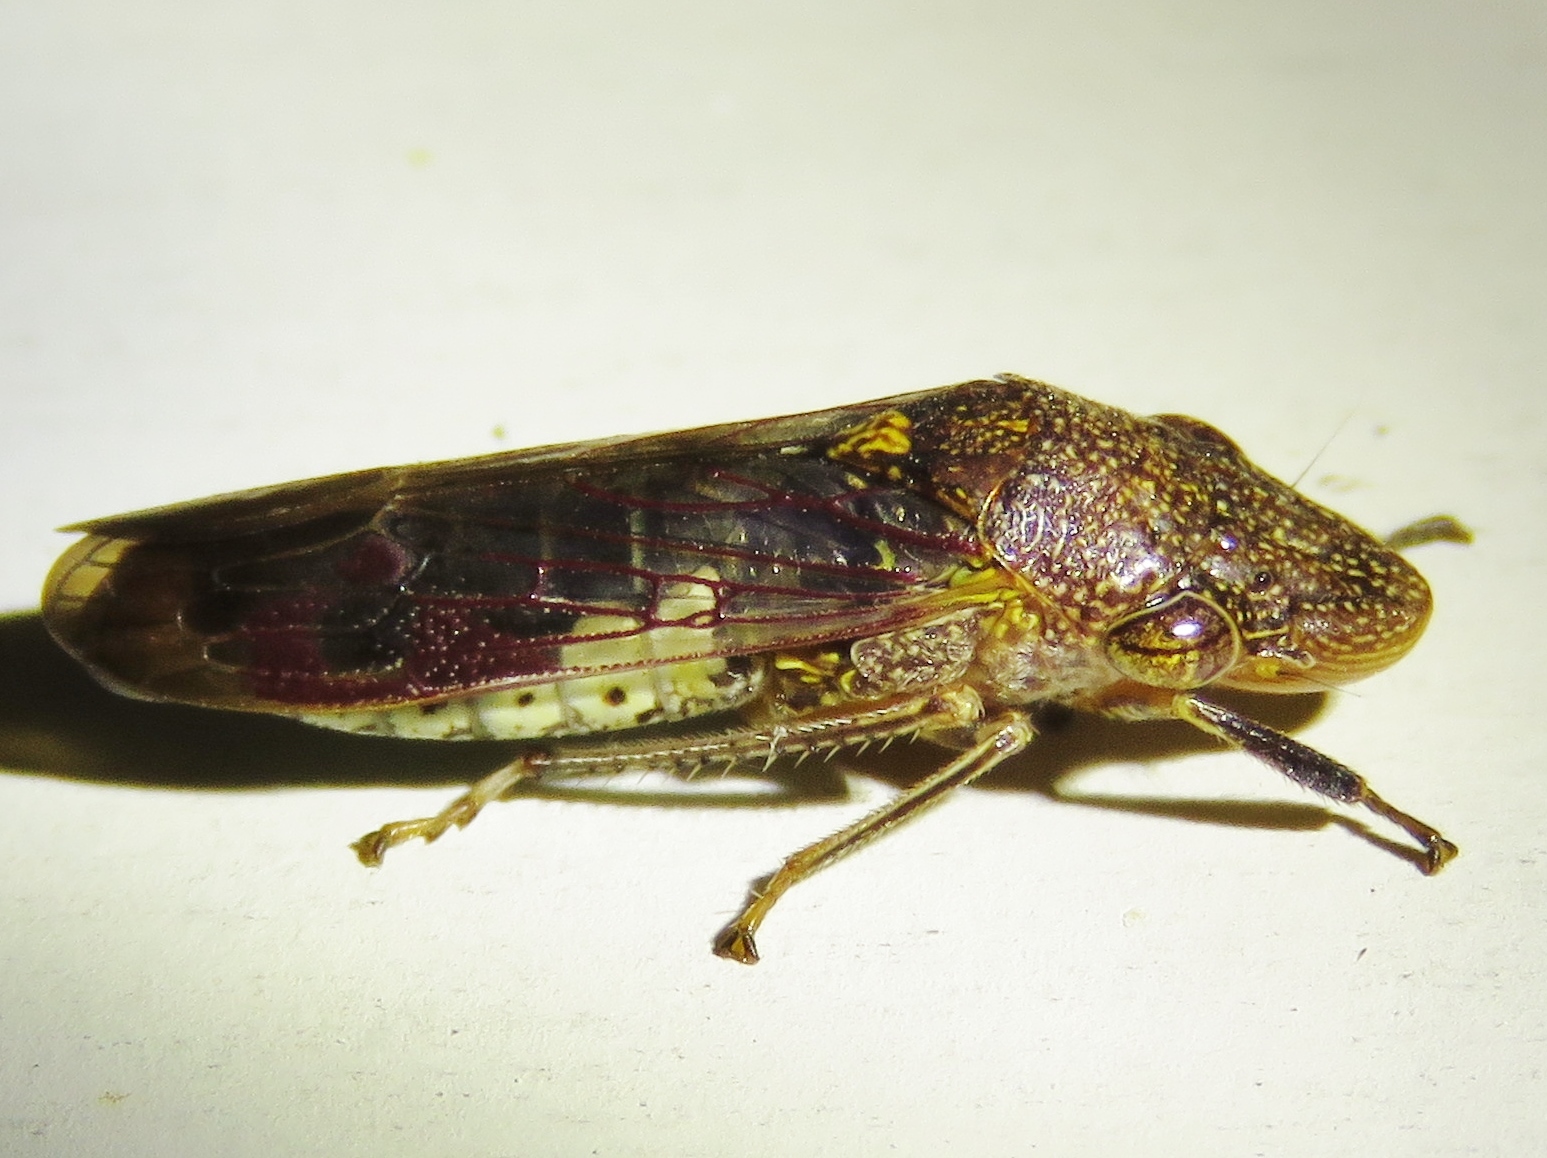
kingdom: Animalia
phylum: Arthropoda
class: Insecta
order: Hemiptera
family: Cicadellidae
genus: Homalodisca
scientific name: Homalodisca vitripennis
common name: Glassy-winged sharpshooter
